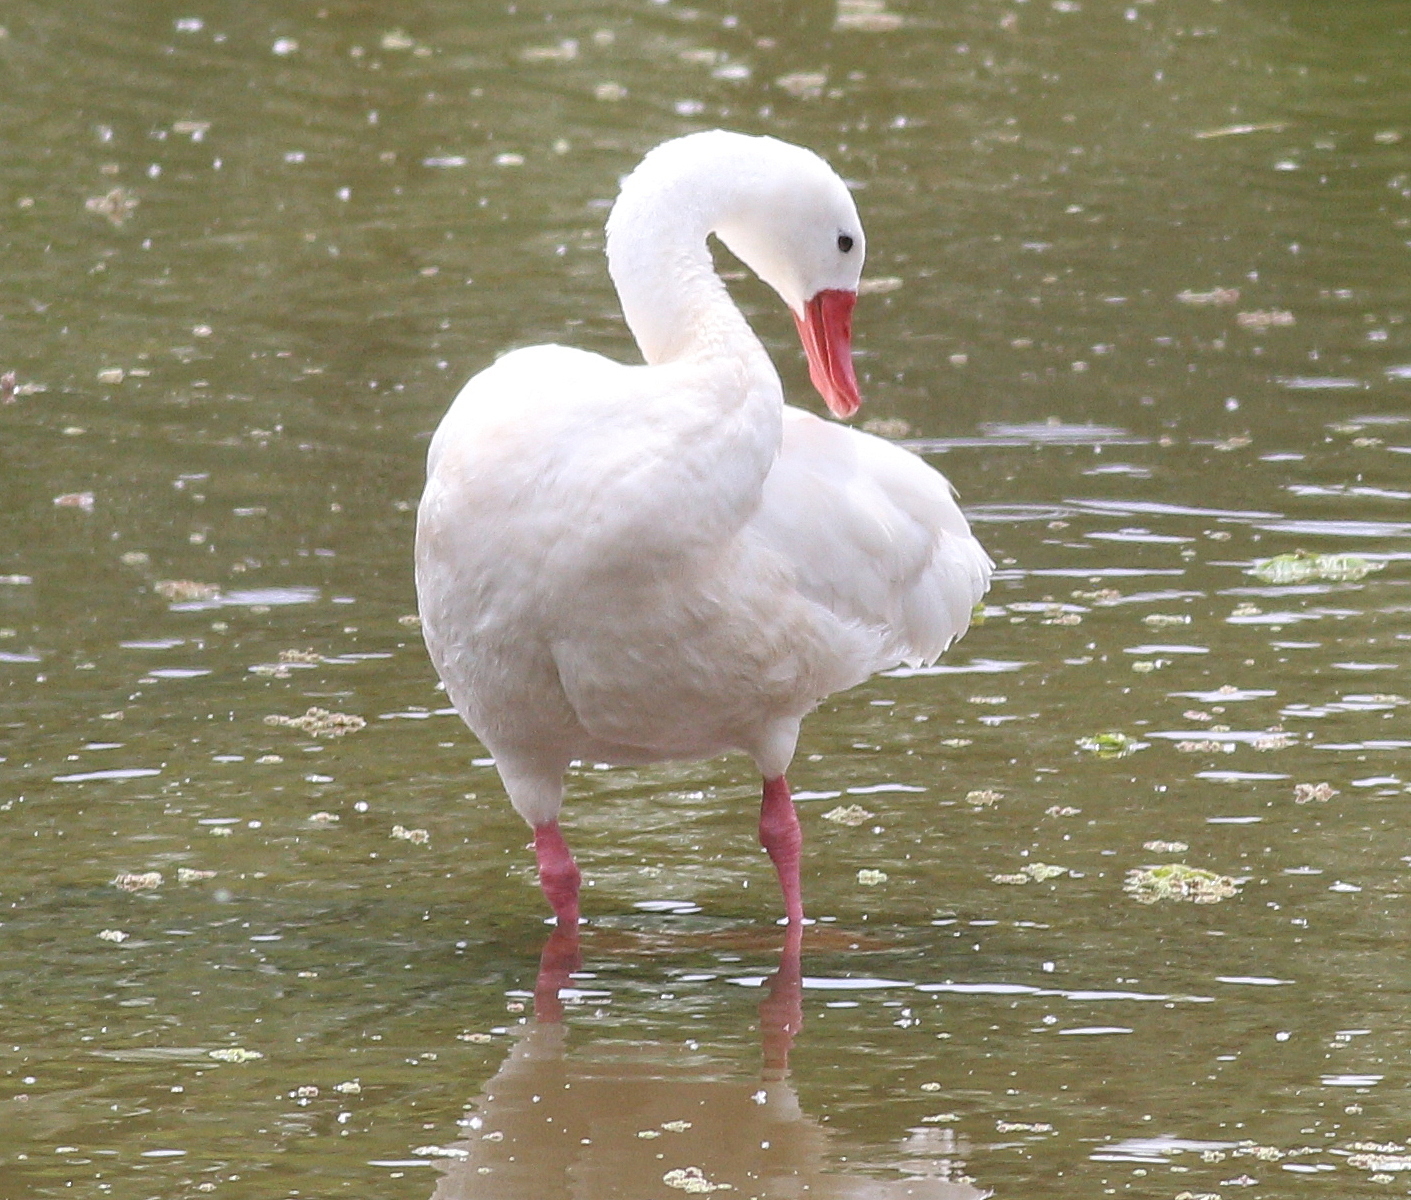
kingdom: Animalia
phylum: Chordata
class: Aves
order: Anseriformes
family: Anatidae
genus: Coscoroba
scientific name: Coscoroba coscoroba
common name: Coscoroba swan
